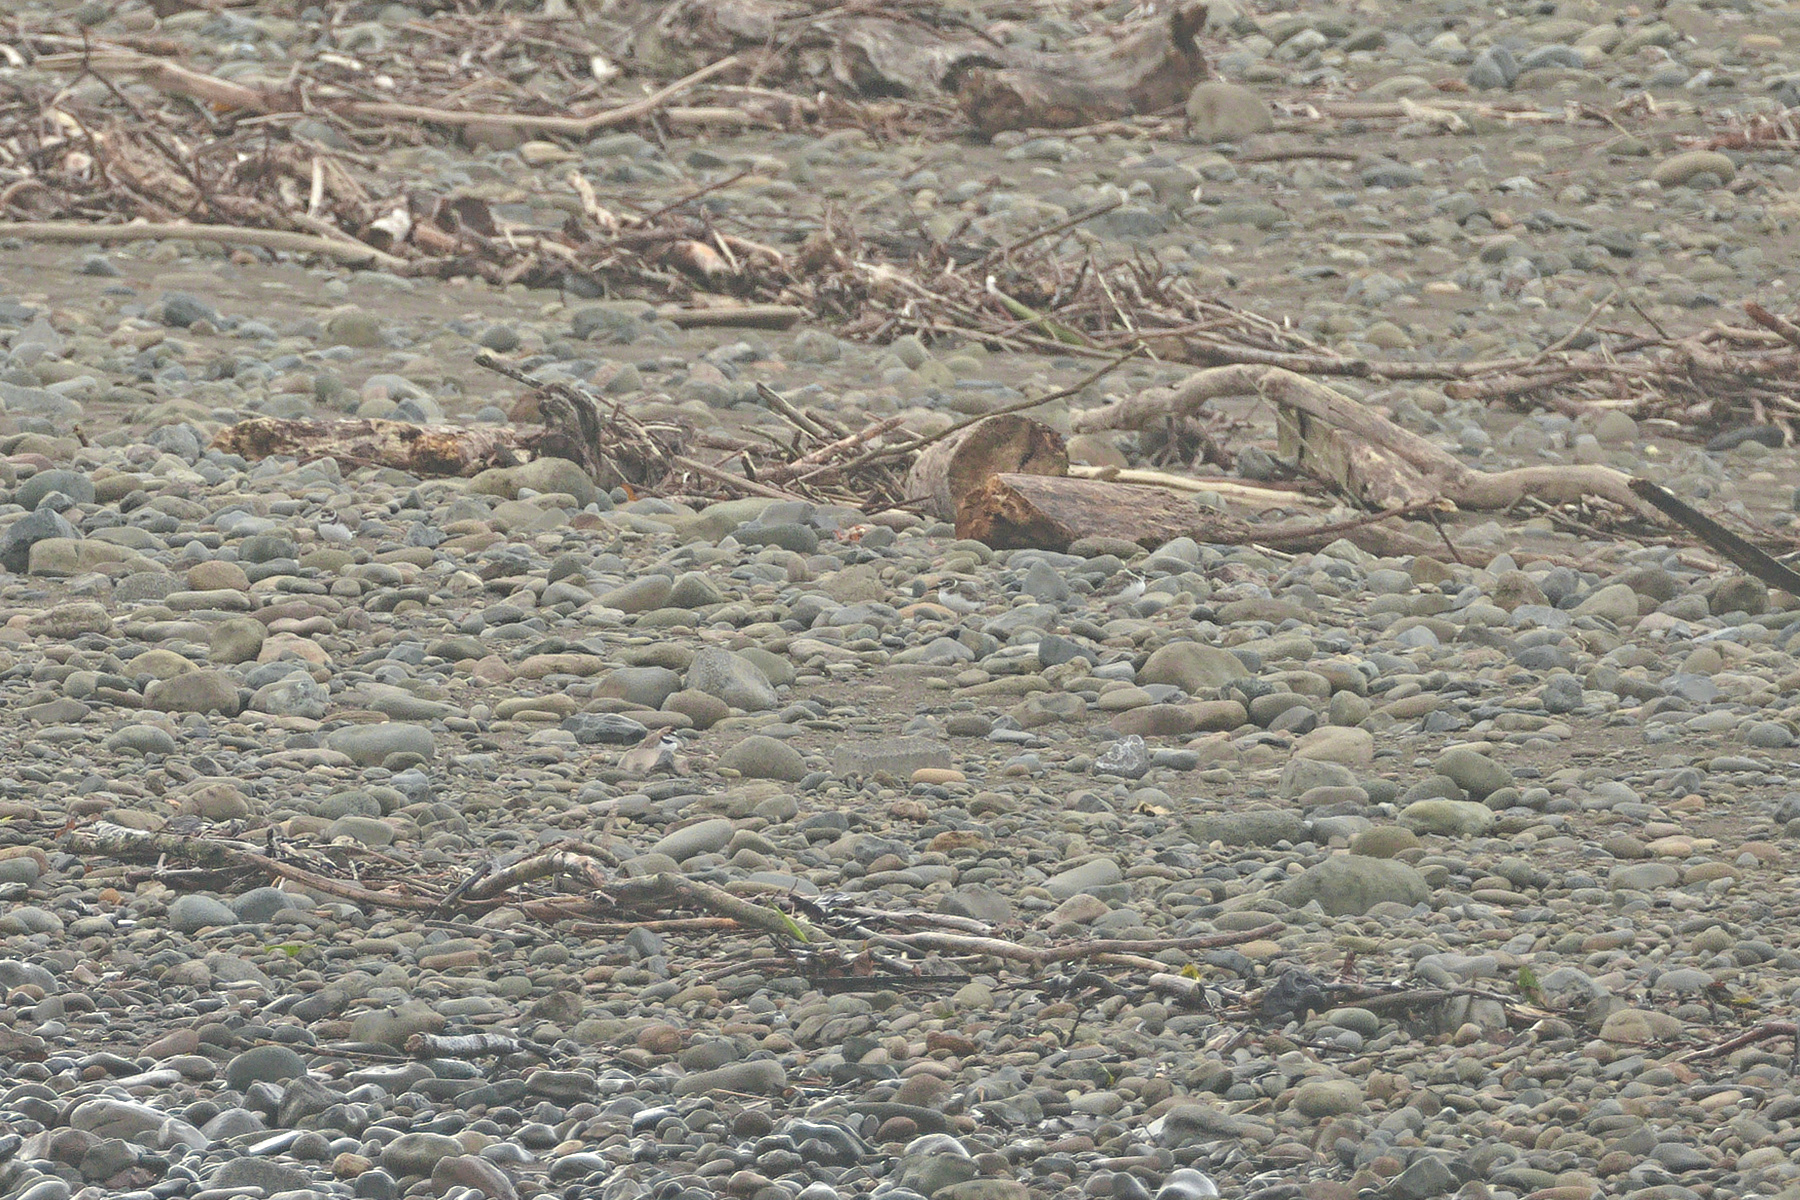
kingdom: Animalia
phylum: Chordata
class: Aves
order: Charadriiformes
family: Charadriidae
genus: Charadrius
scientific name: Charadrius semipalmatus
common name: Semipalmated plover
